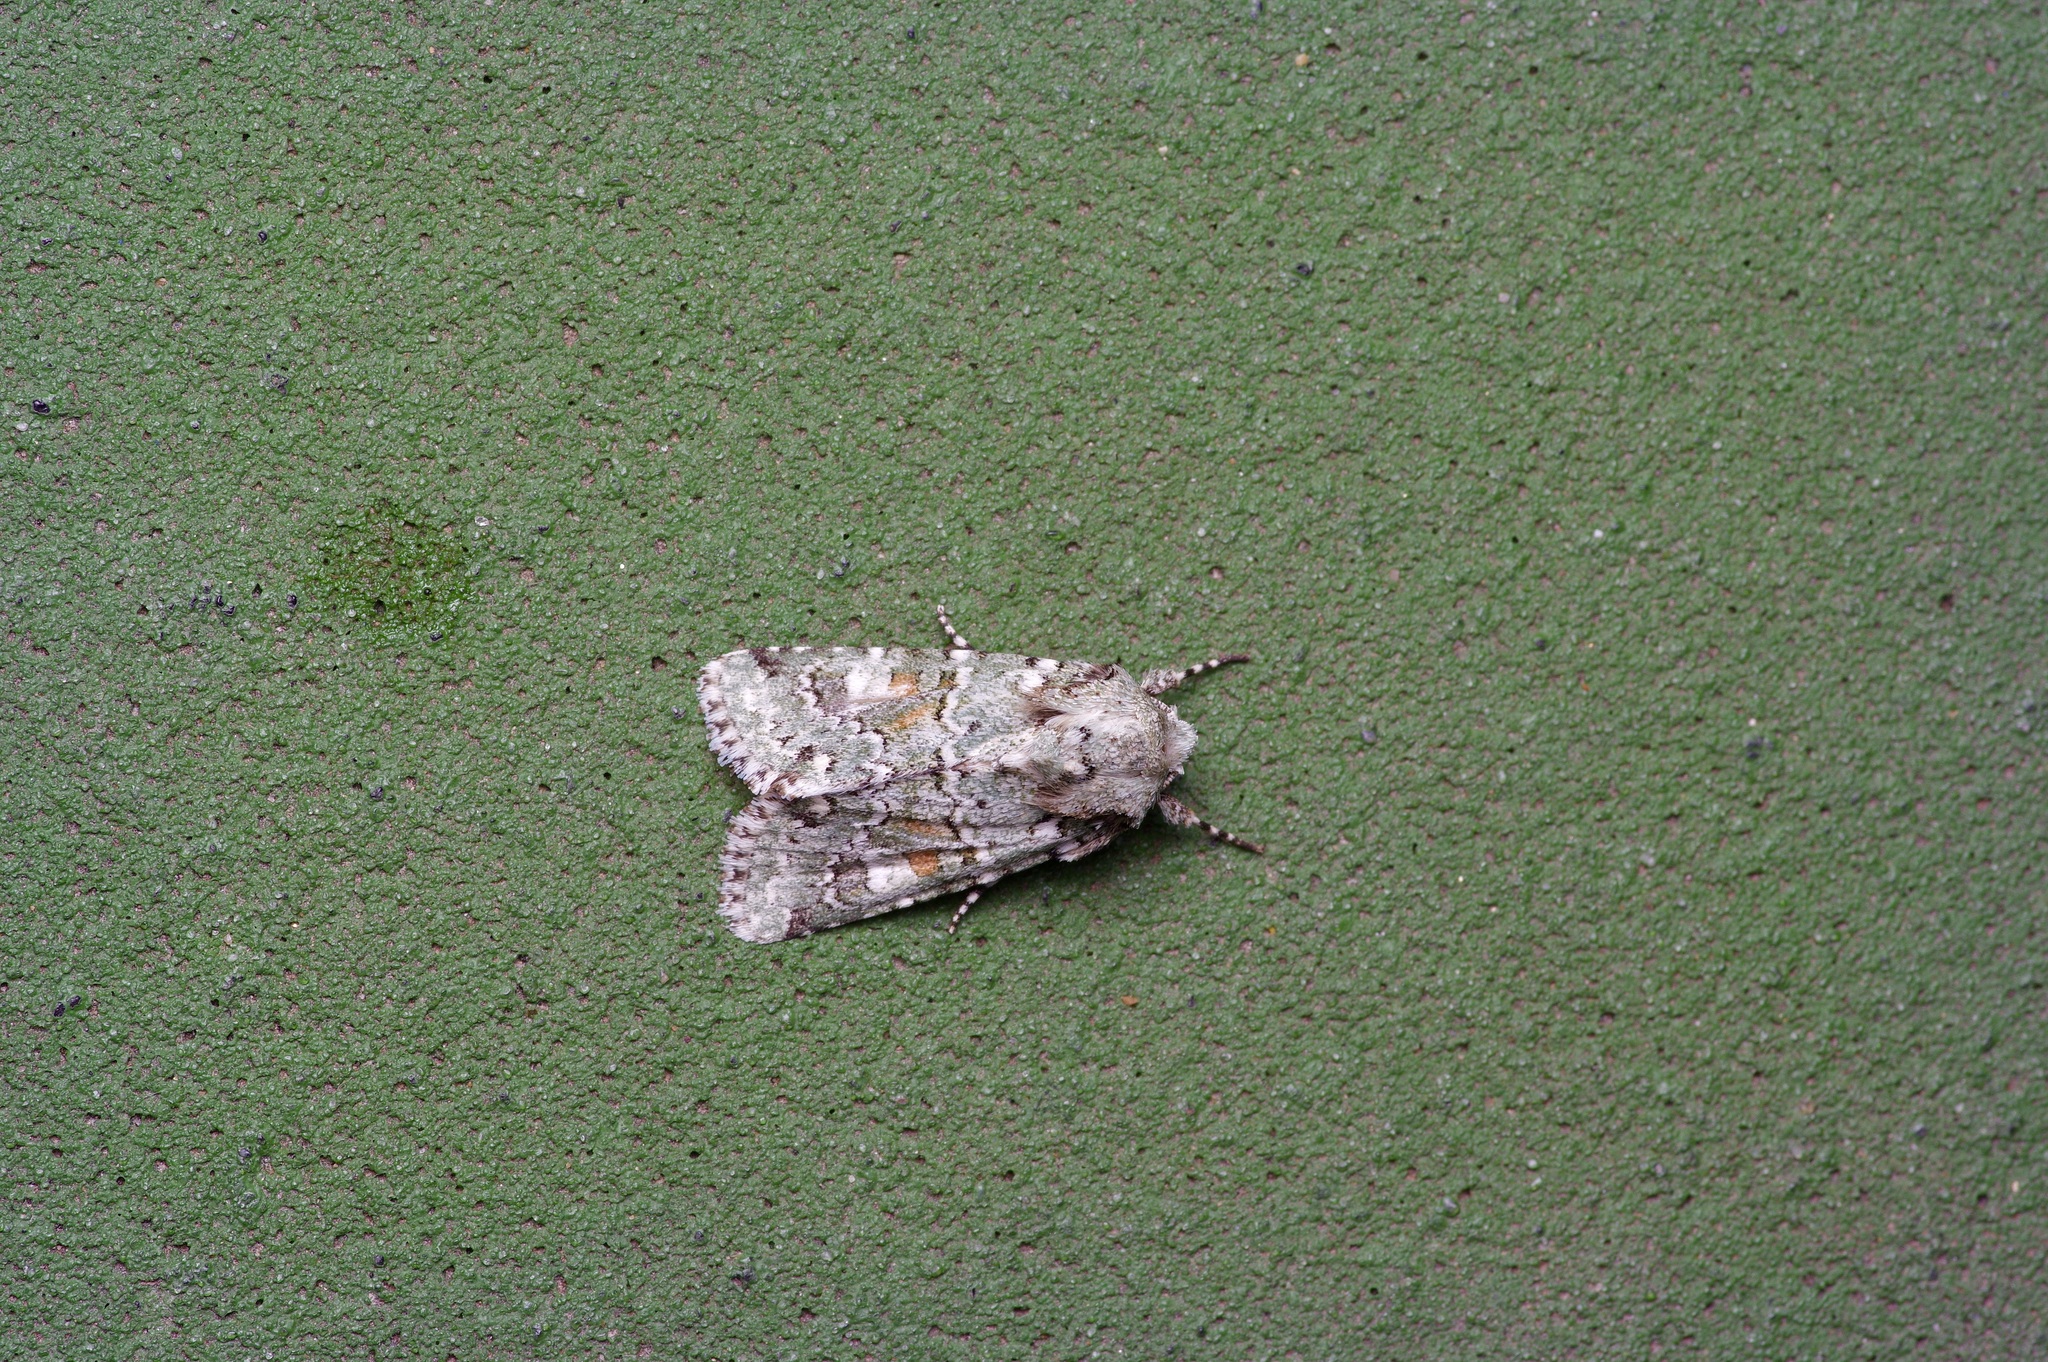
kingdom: Animalia
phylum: Arthropoda
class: Insecta
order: Lepidoptera
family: Noctuidae
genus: Lacinipolia
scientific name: Lacinipolia laudabilis
